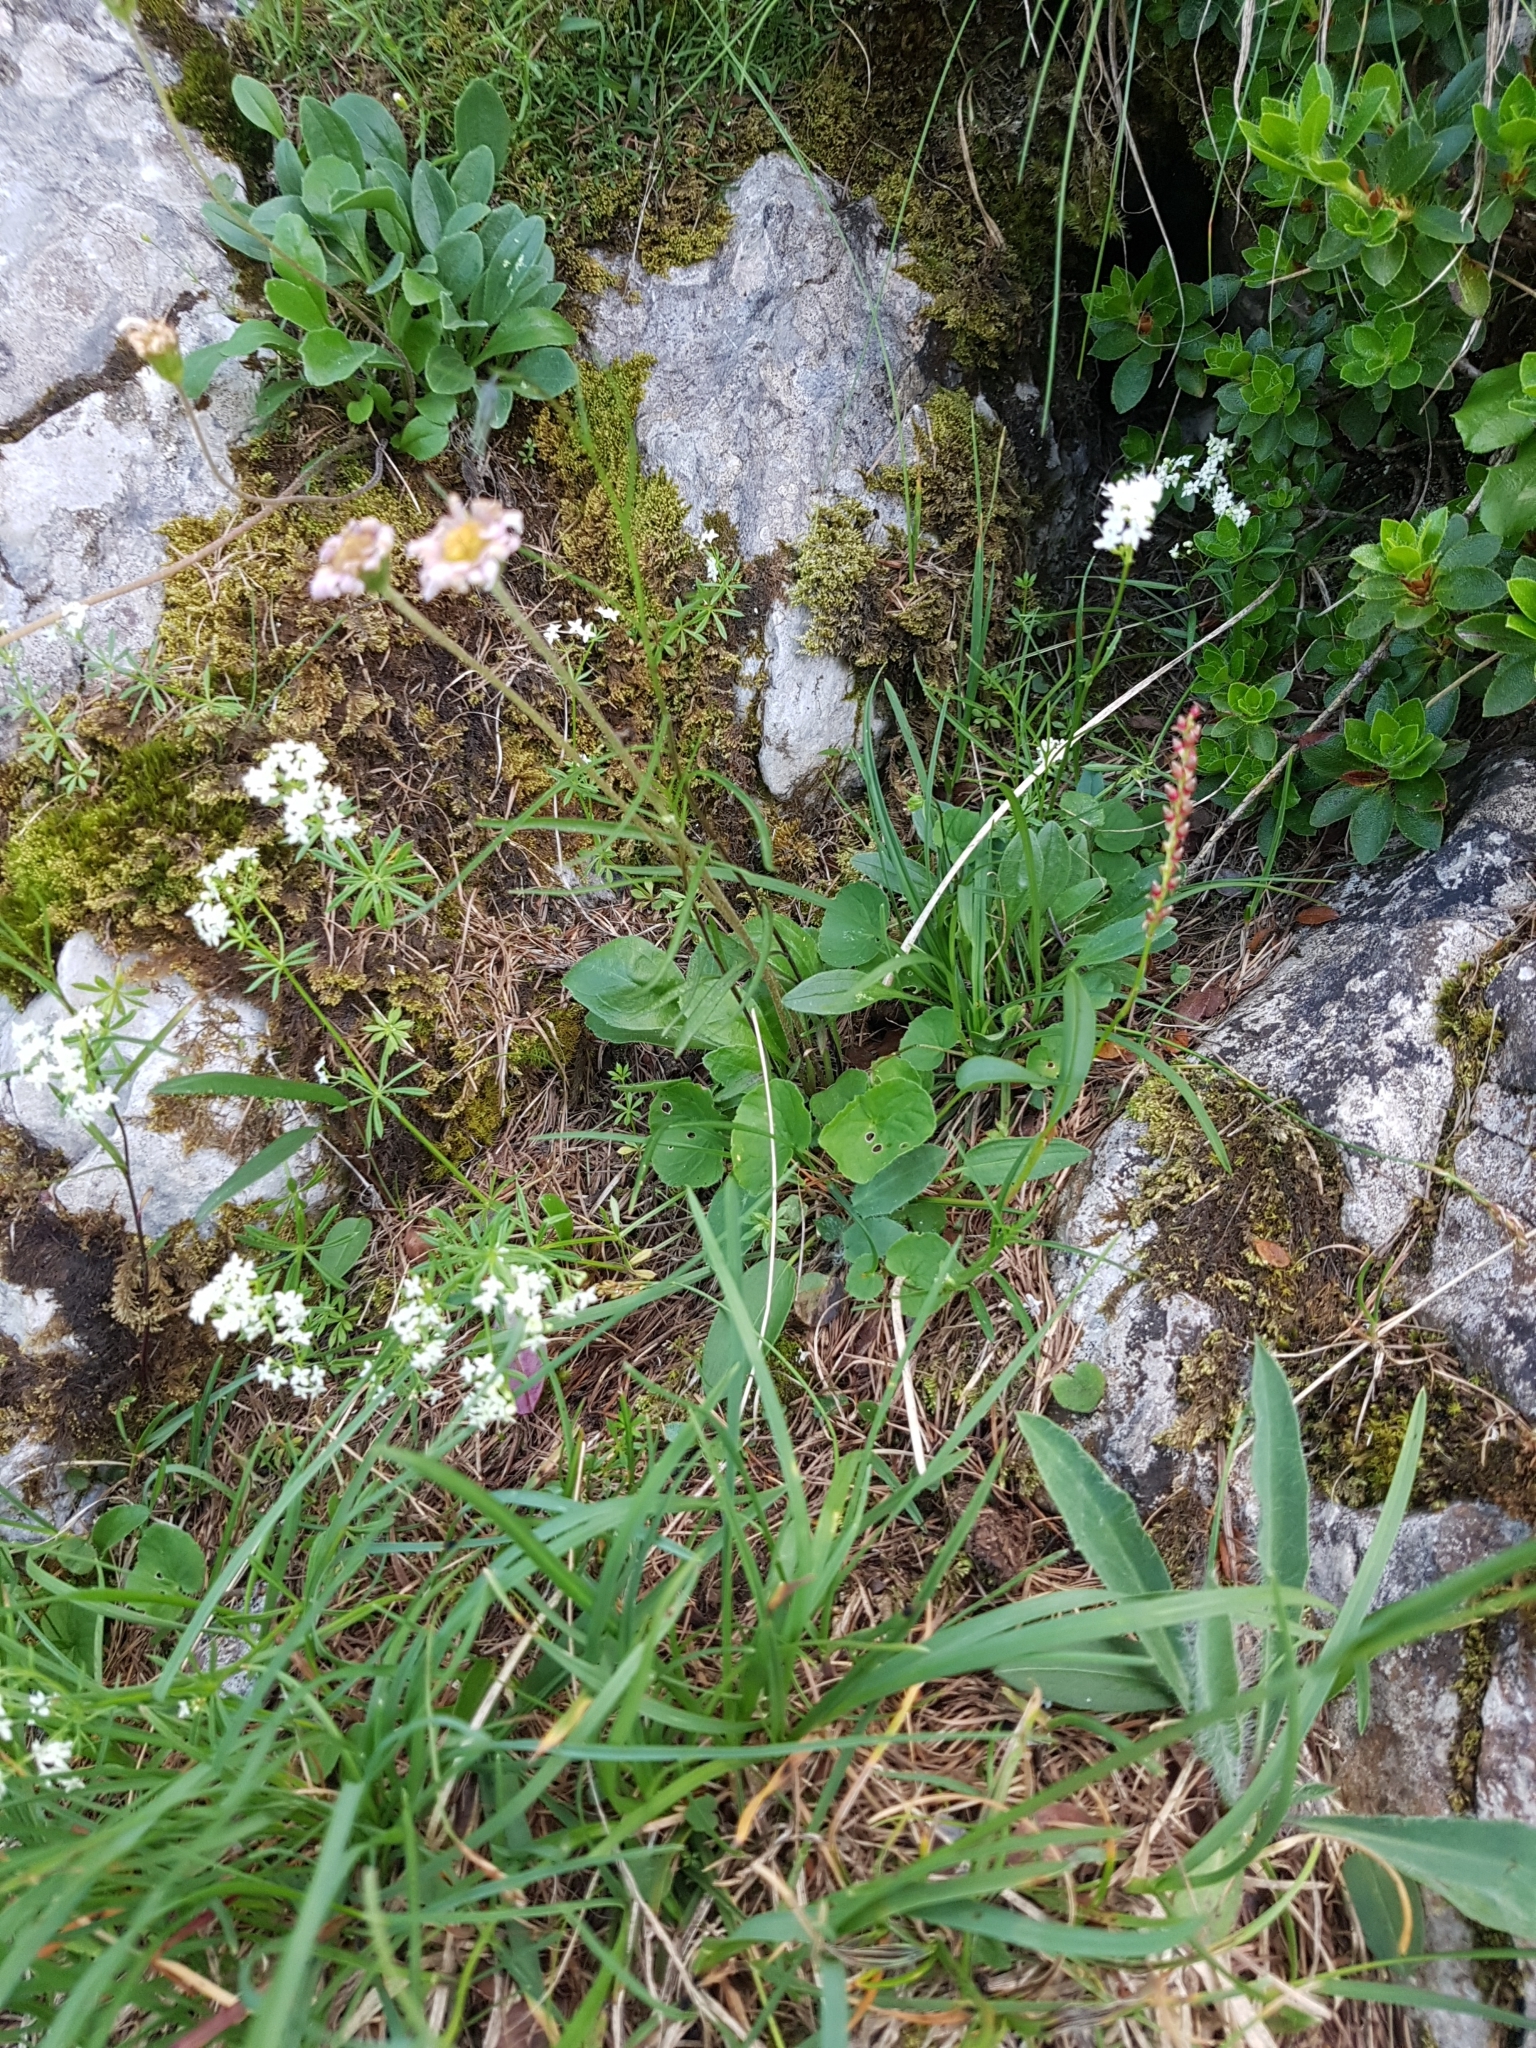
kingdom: Plantae
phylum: Tracheophyta
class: Magnoliopsida
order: Asterales
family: Asteraceae
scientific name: Asteraceae
